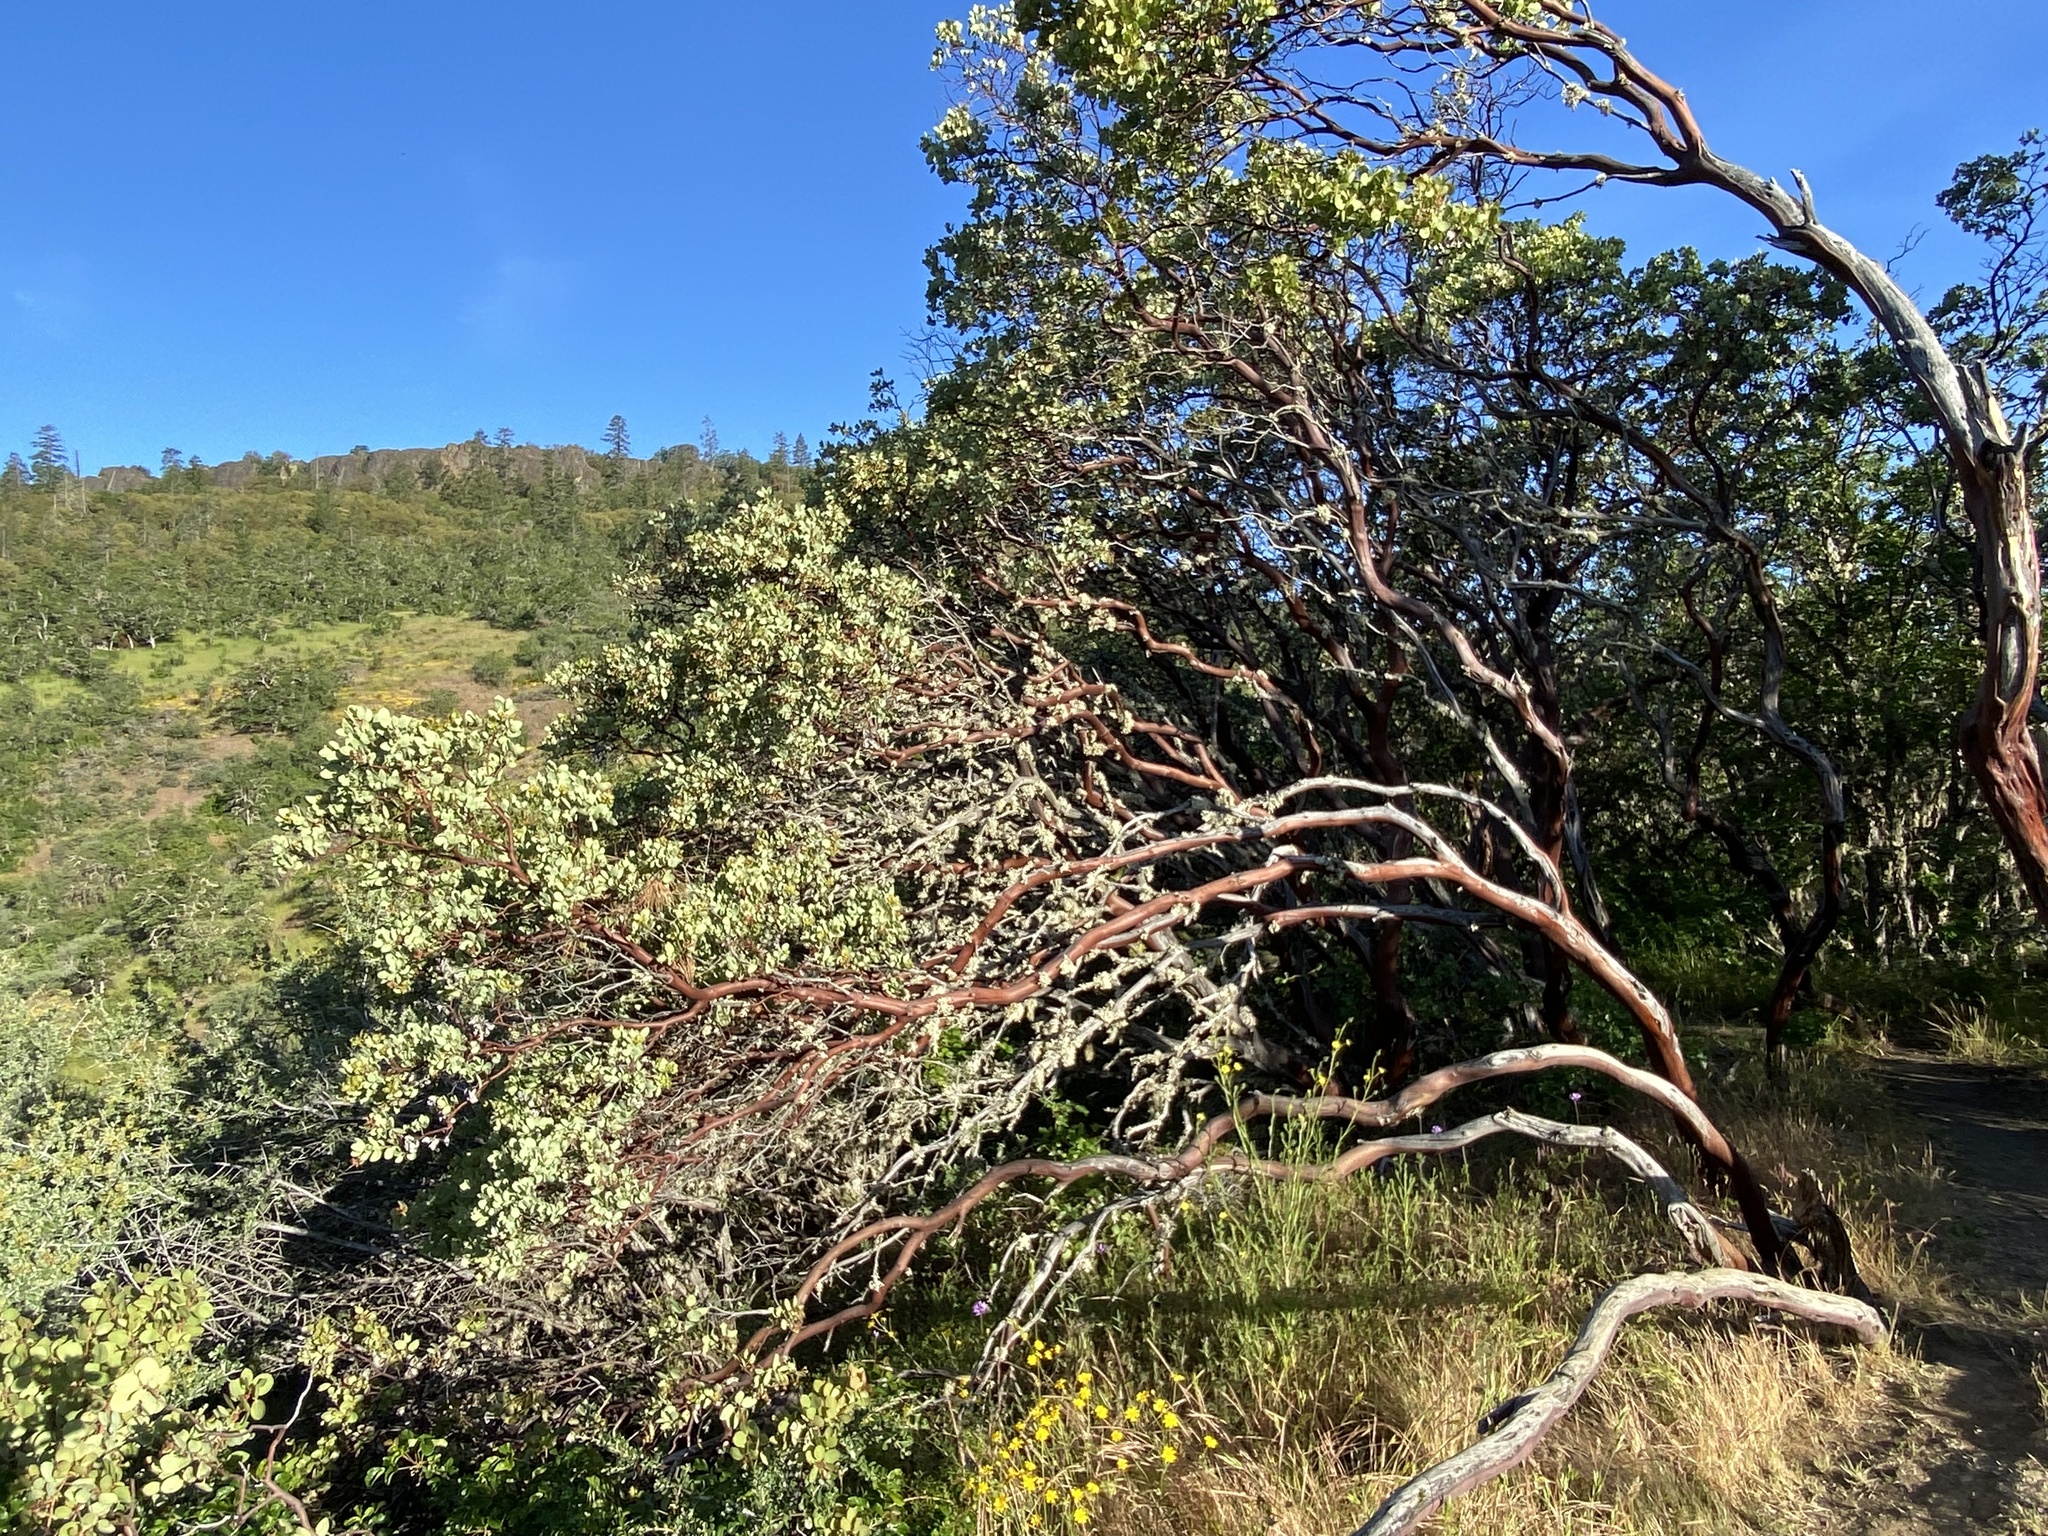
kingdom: Plantae
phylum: Tracheophyta
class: Magnoliopsida
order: Ericales
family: Ericaceae
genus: Arctostaphylos
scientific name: Arctostaphylos viscida
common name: White-leaf manzanita
